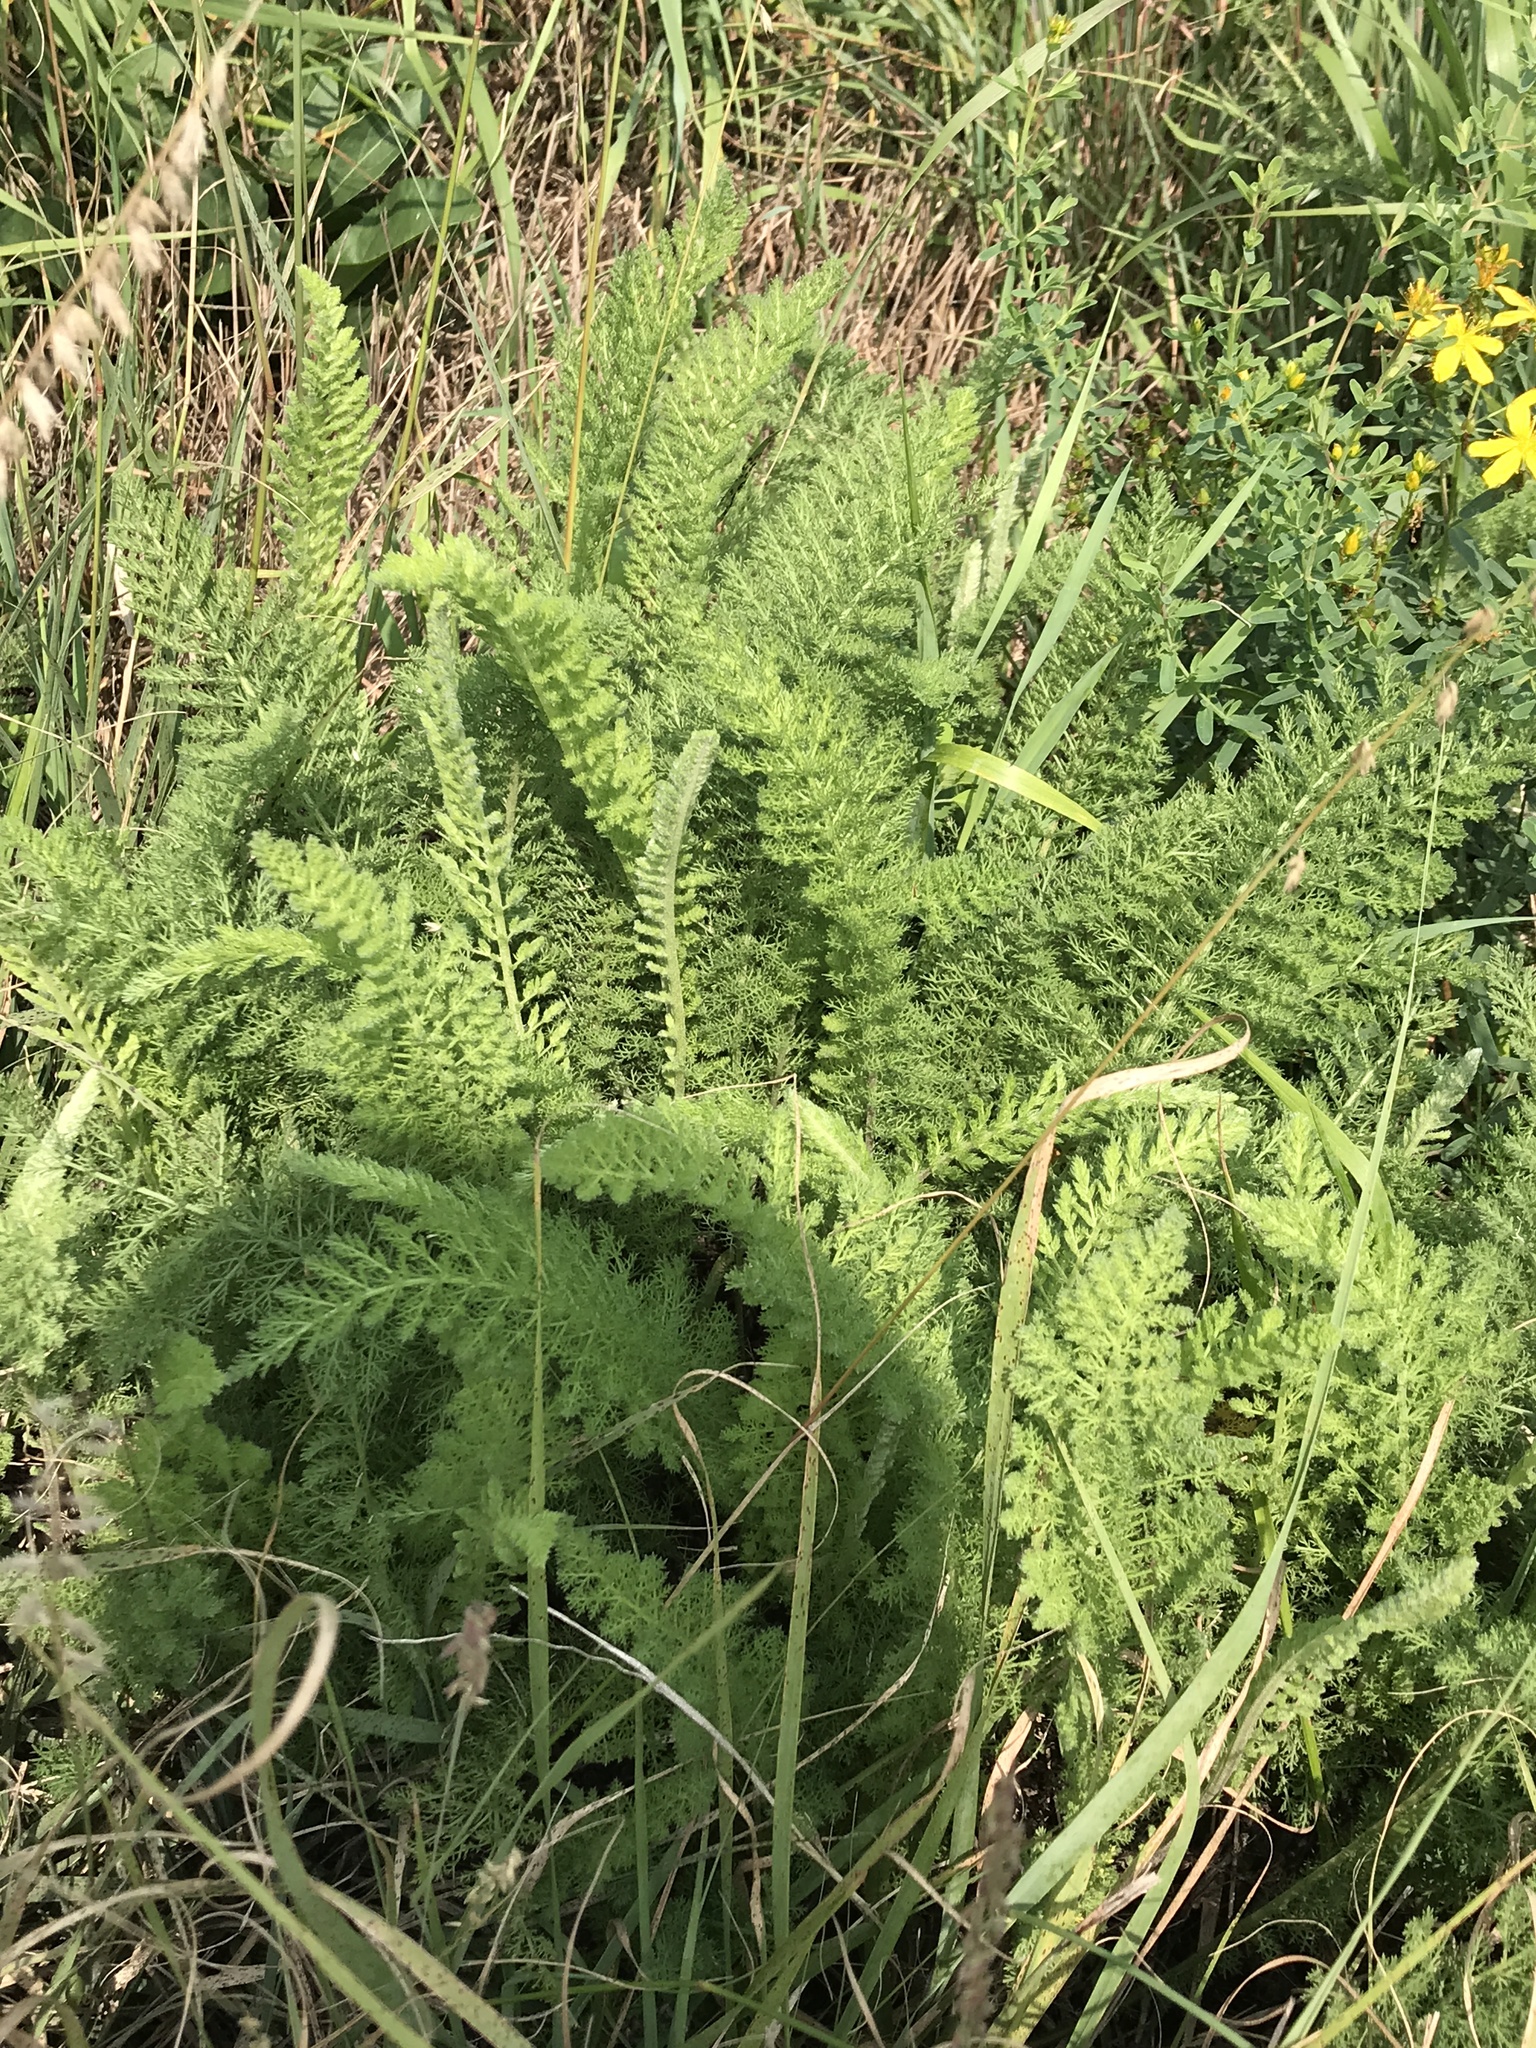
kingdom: Plantae
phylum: Tracheophyta
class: Magnoliopsida
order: Asterales
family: Asteraceae
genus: Achillea
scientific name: Achillea millefolium
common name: Yarrow
